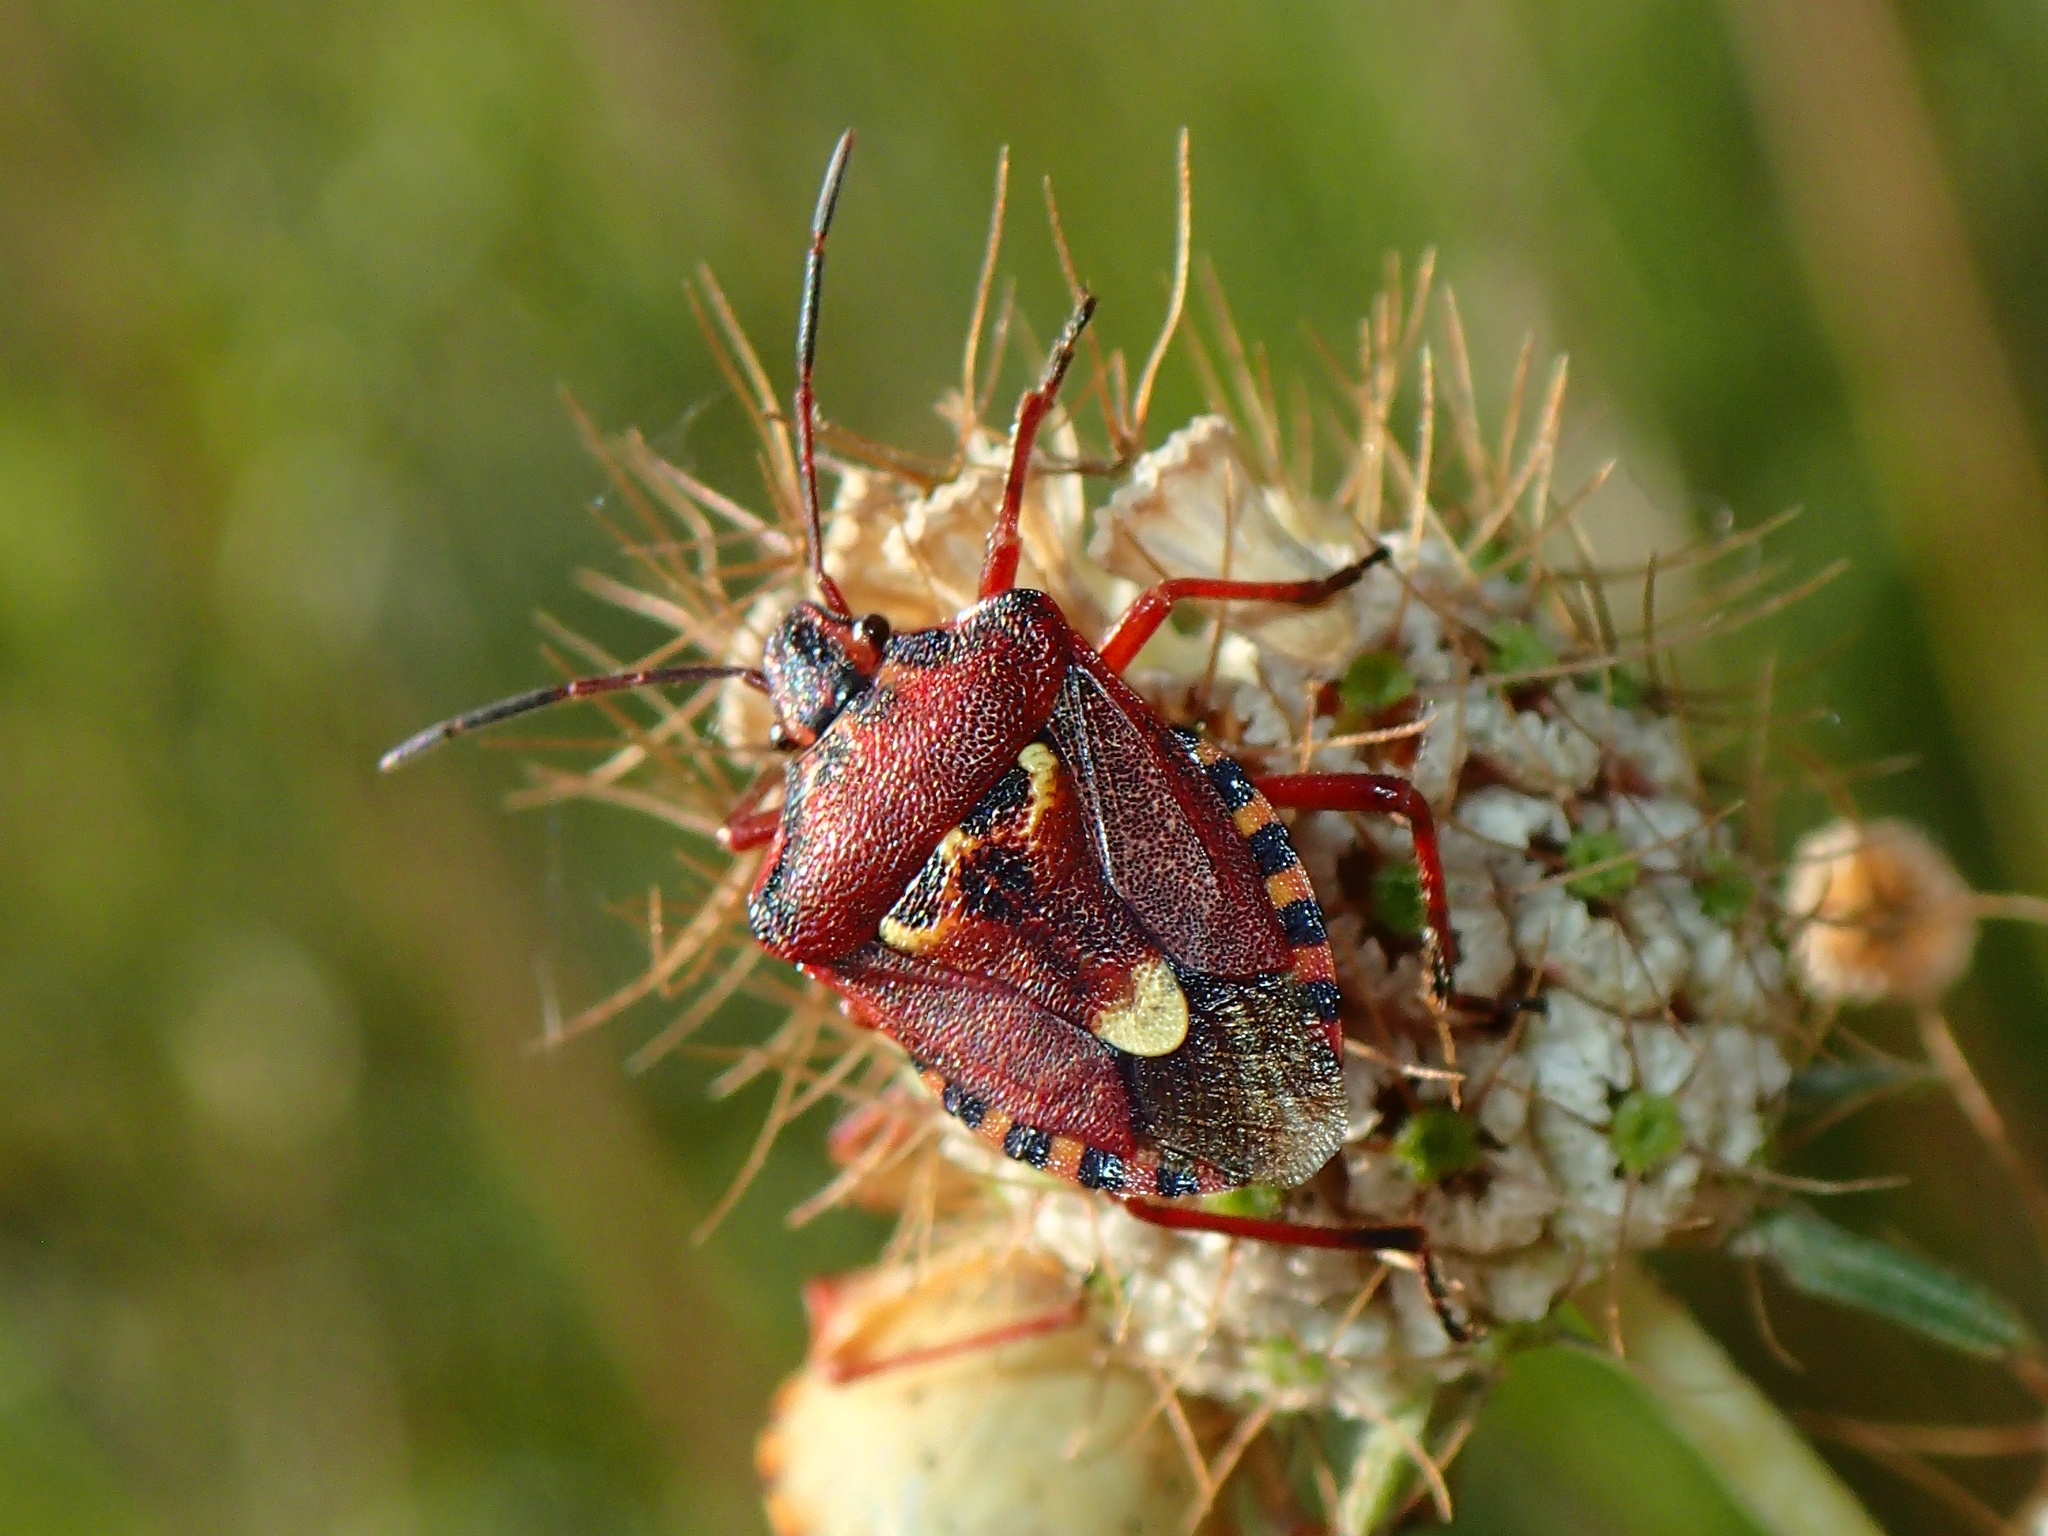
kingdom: Animalia
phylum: Arthropoda
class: Insecta
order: Hemiptera
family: Miridae
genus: Orthops
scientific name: Orthops kalmii
